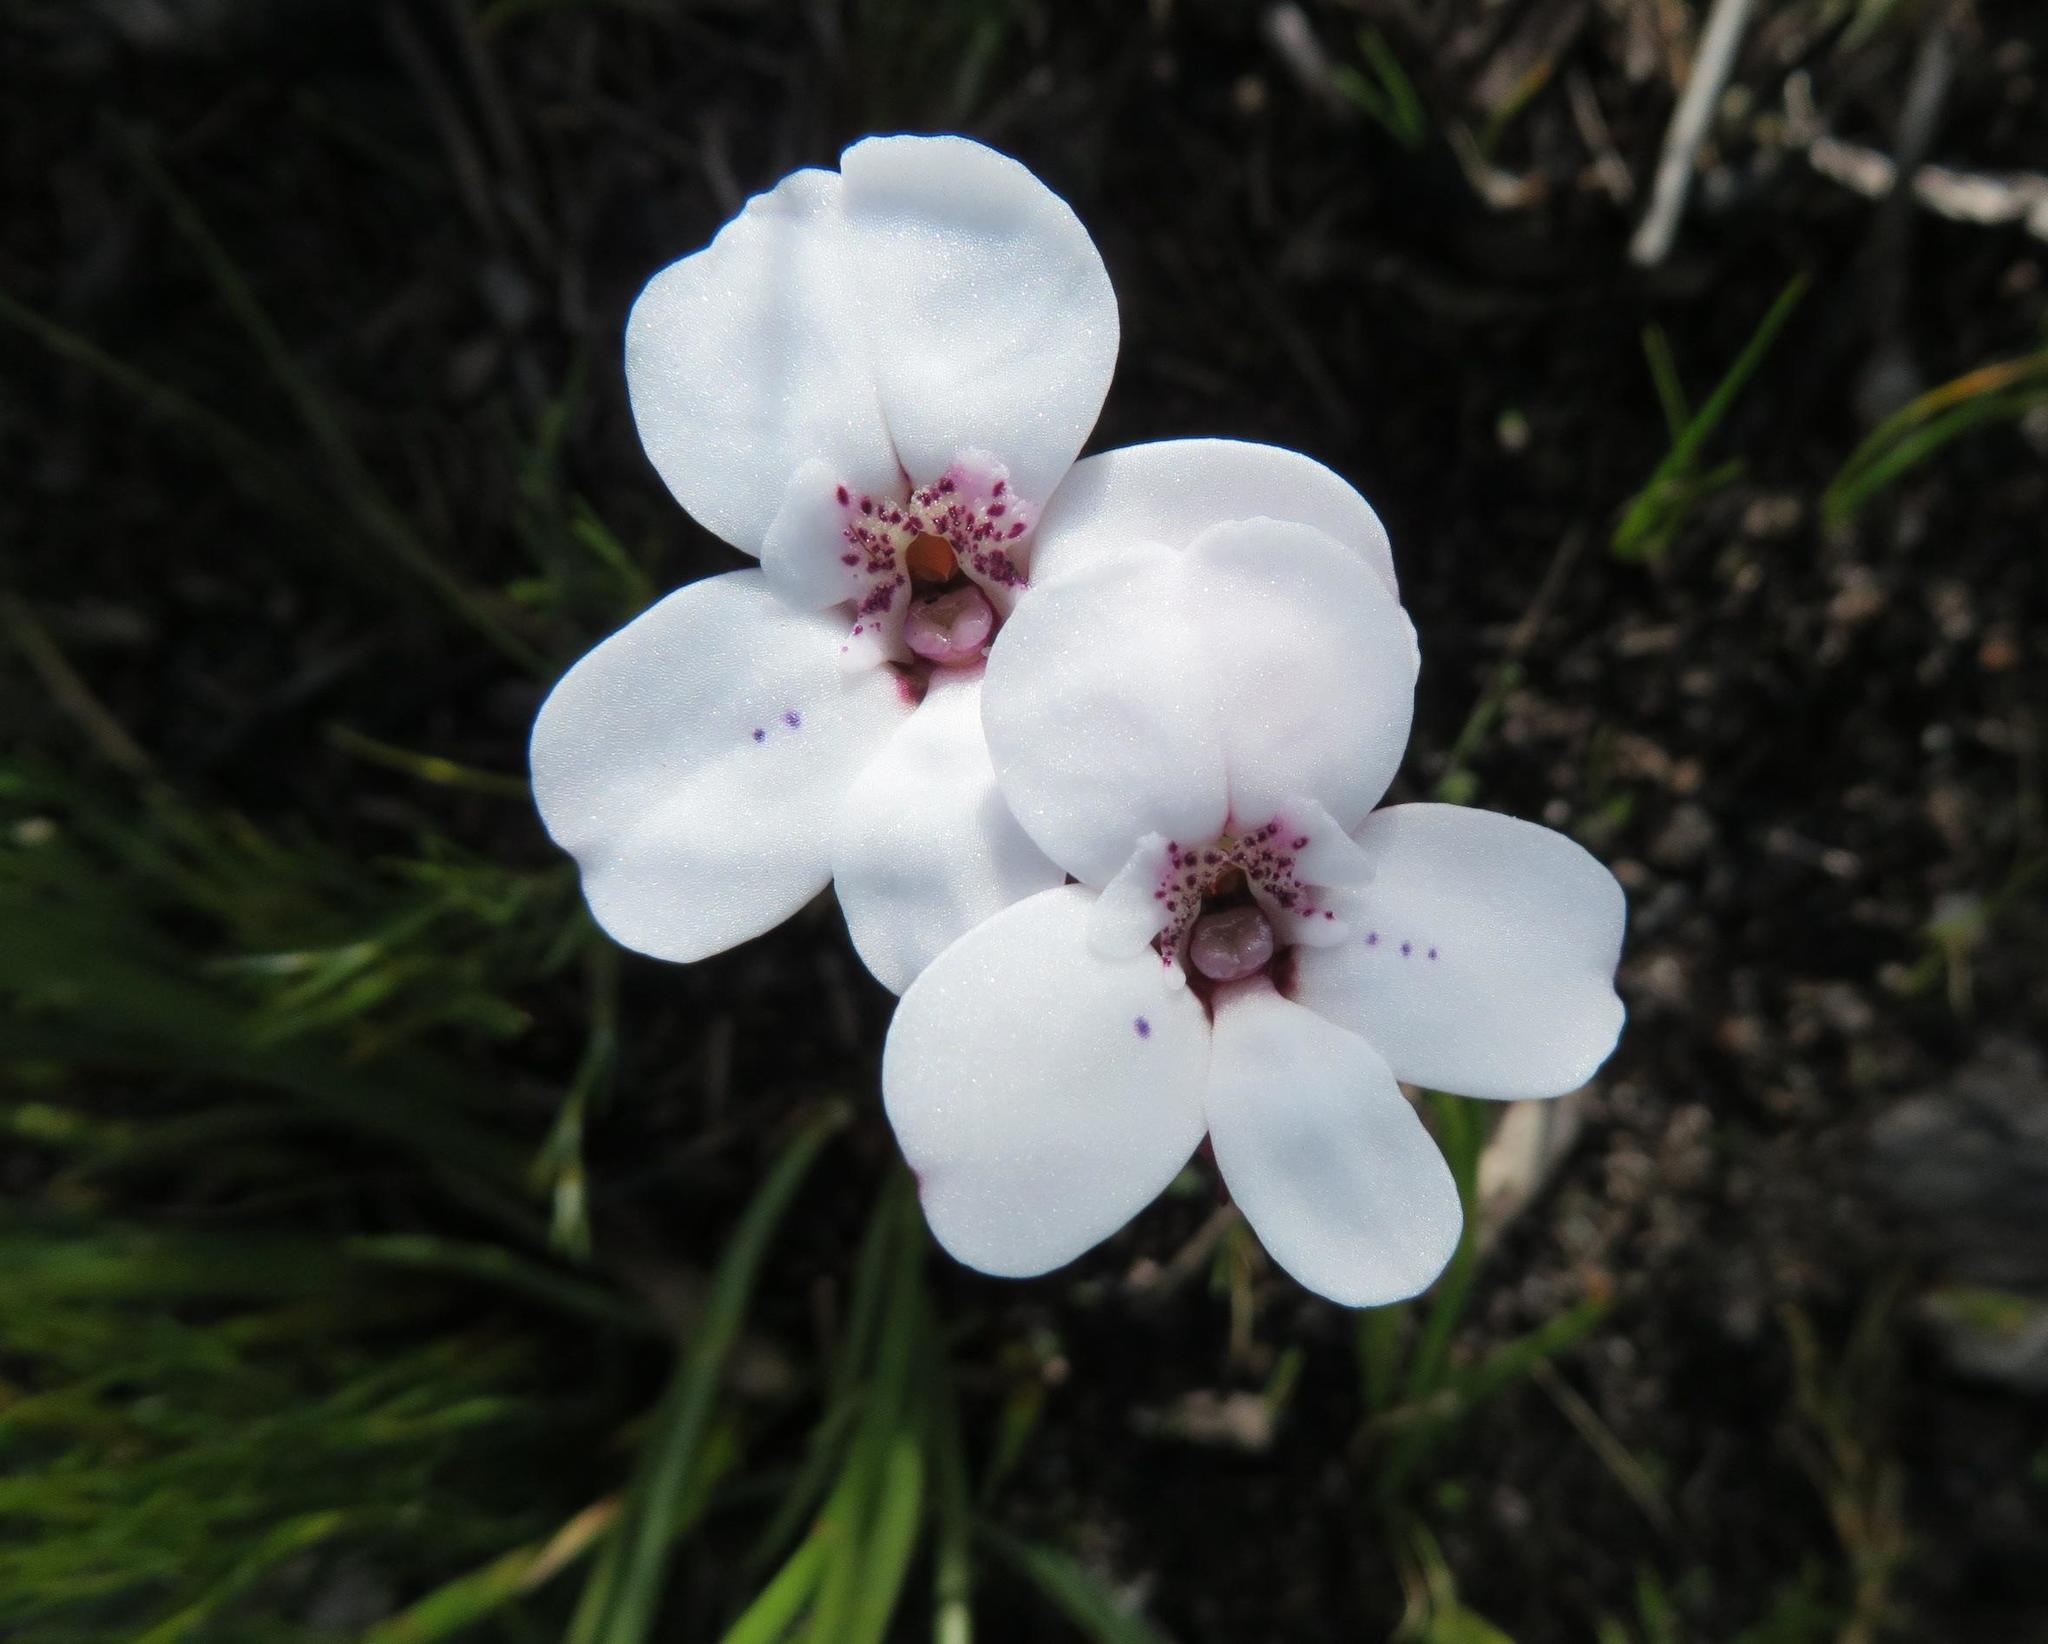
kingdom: Plantae
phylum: Tracheophyta
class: Liliopsida
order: Asparagales
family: Orchidaceae
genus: Disa
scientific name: Disa fasciata
